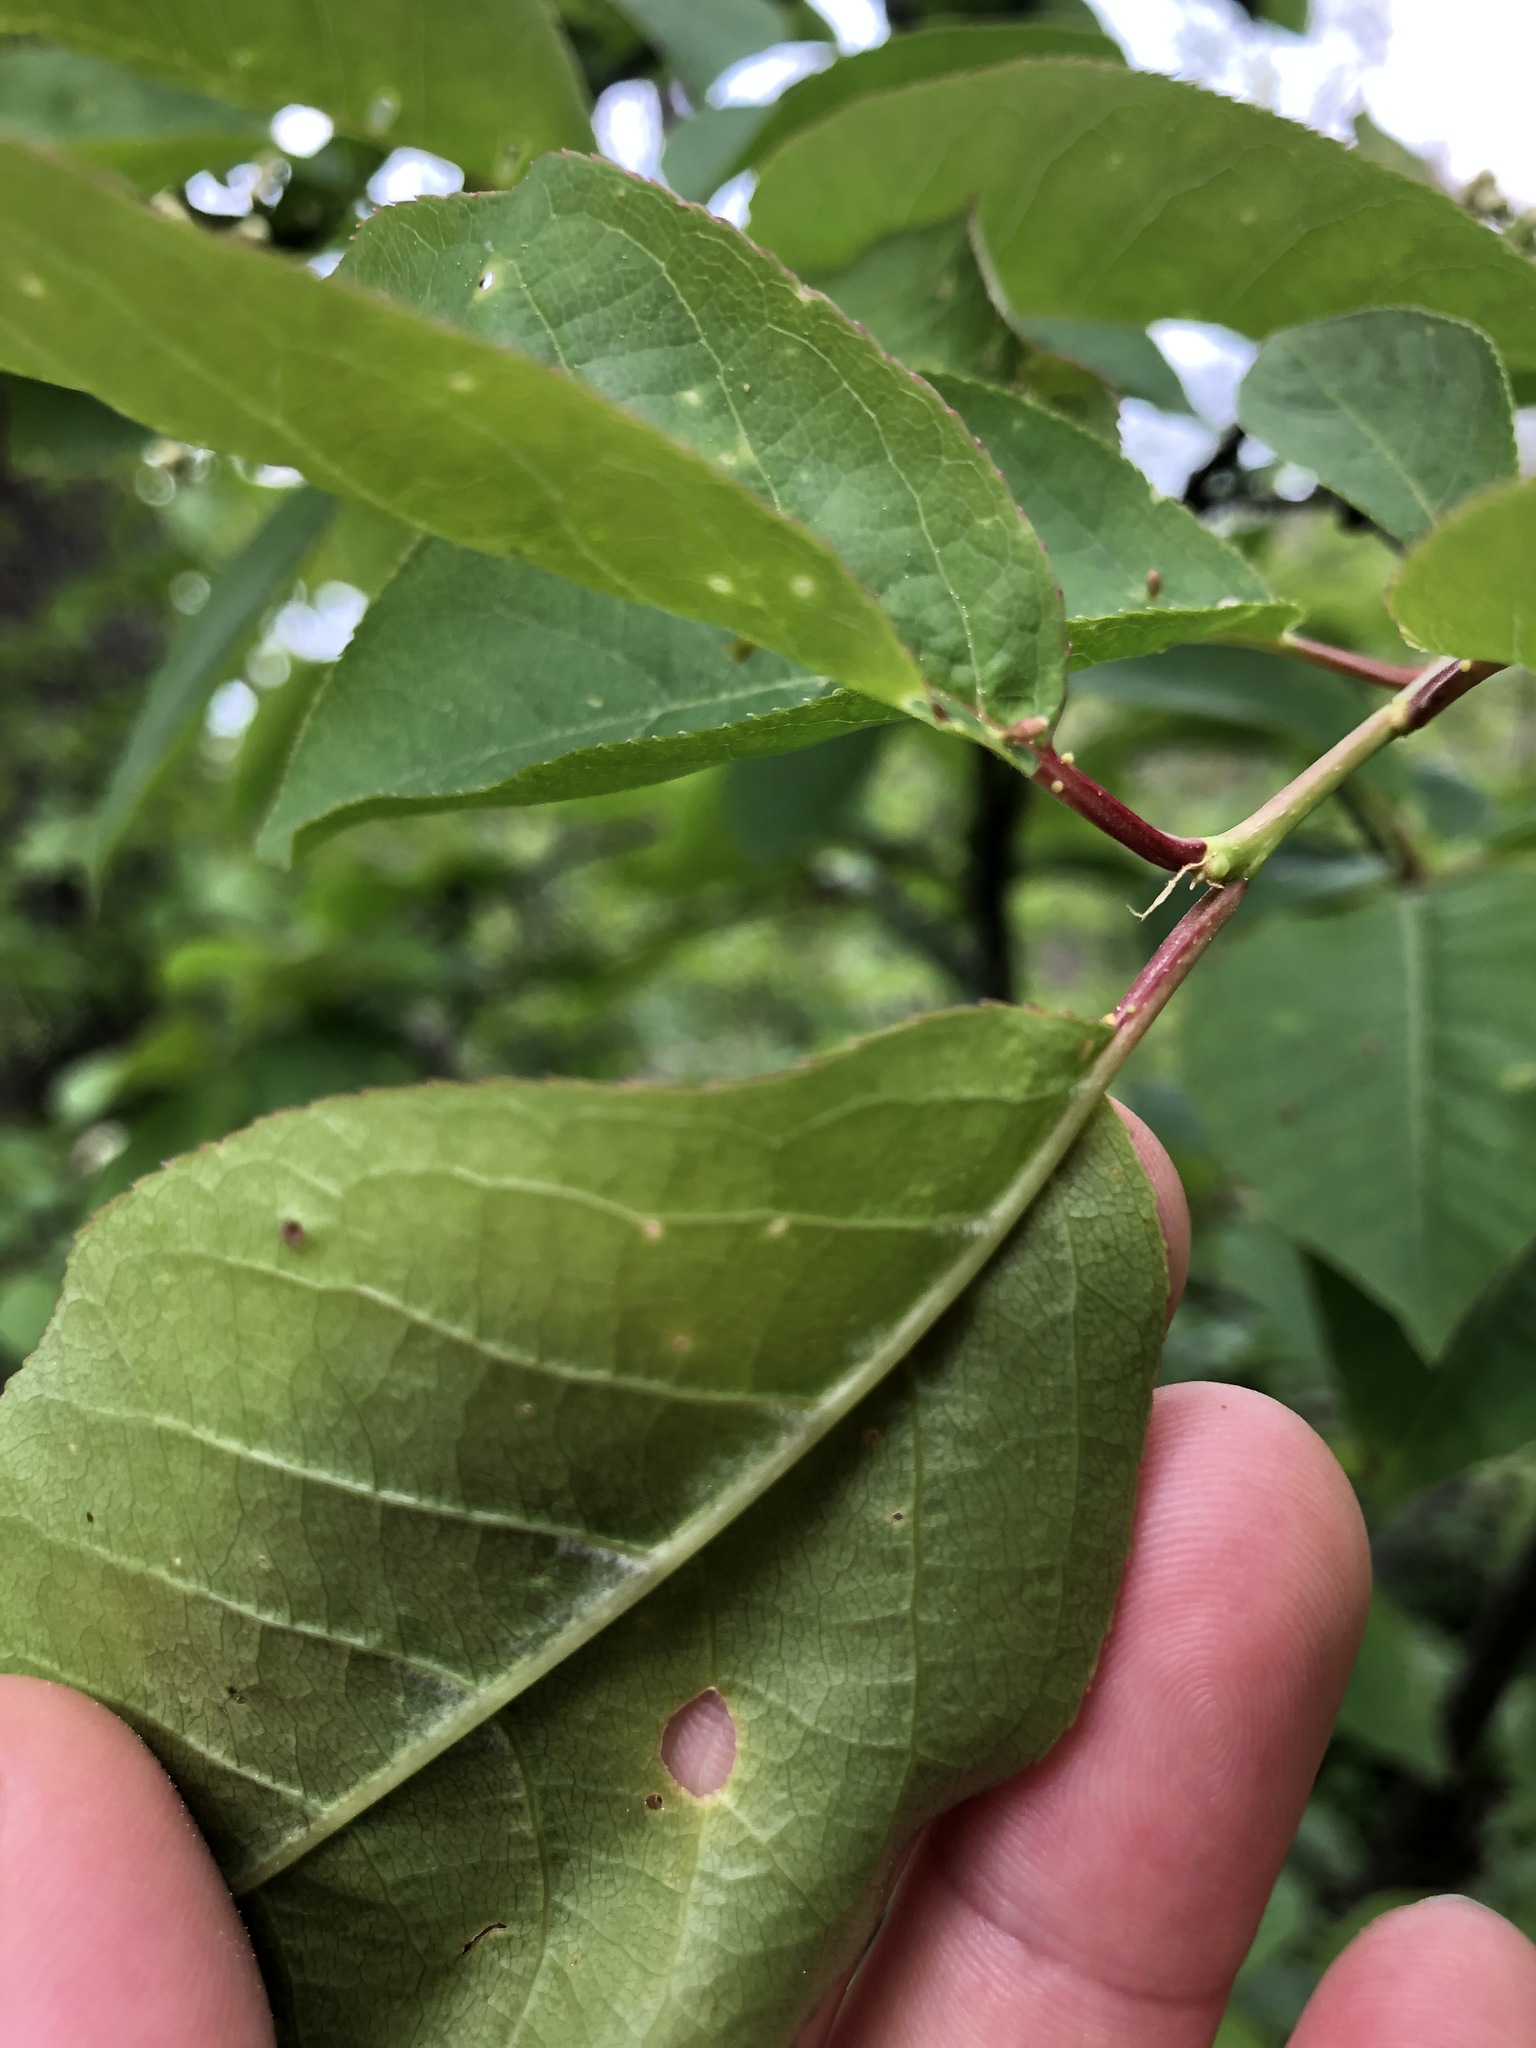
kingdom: Plantae
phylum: Tracheophyta
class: Magnoliopsida
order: Rosales
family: Rosaceae
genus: Prunus
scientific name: Prunus virginiana
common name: Chokecherry
